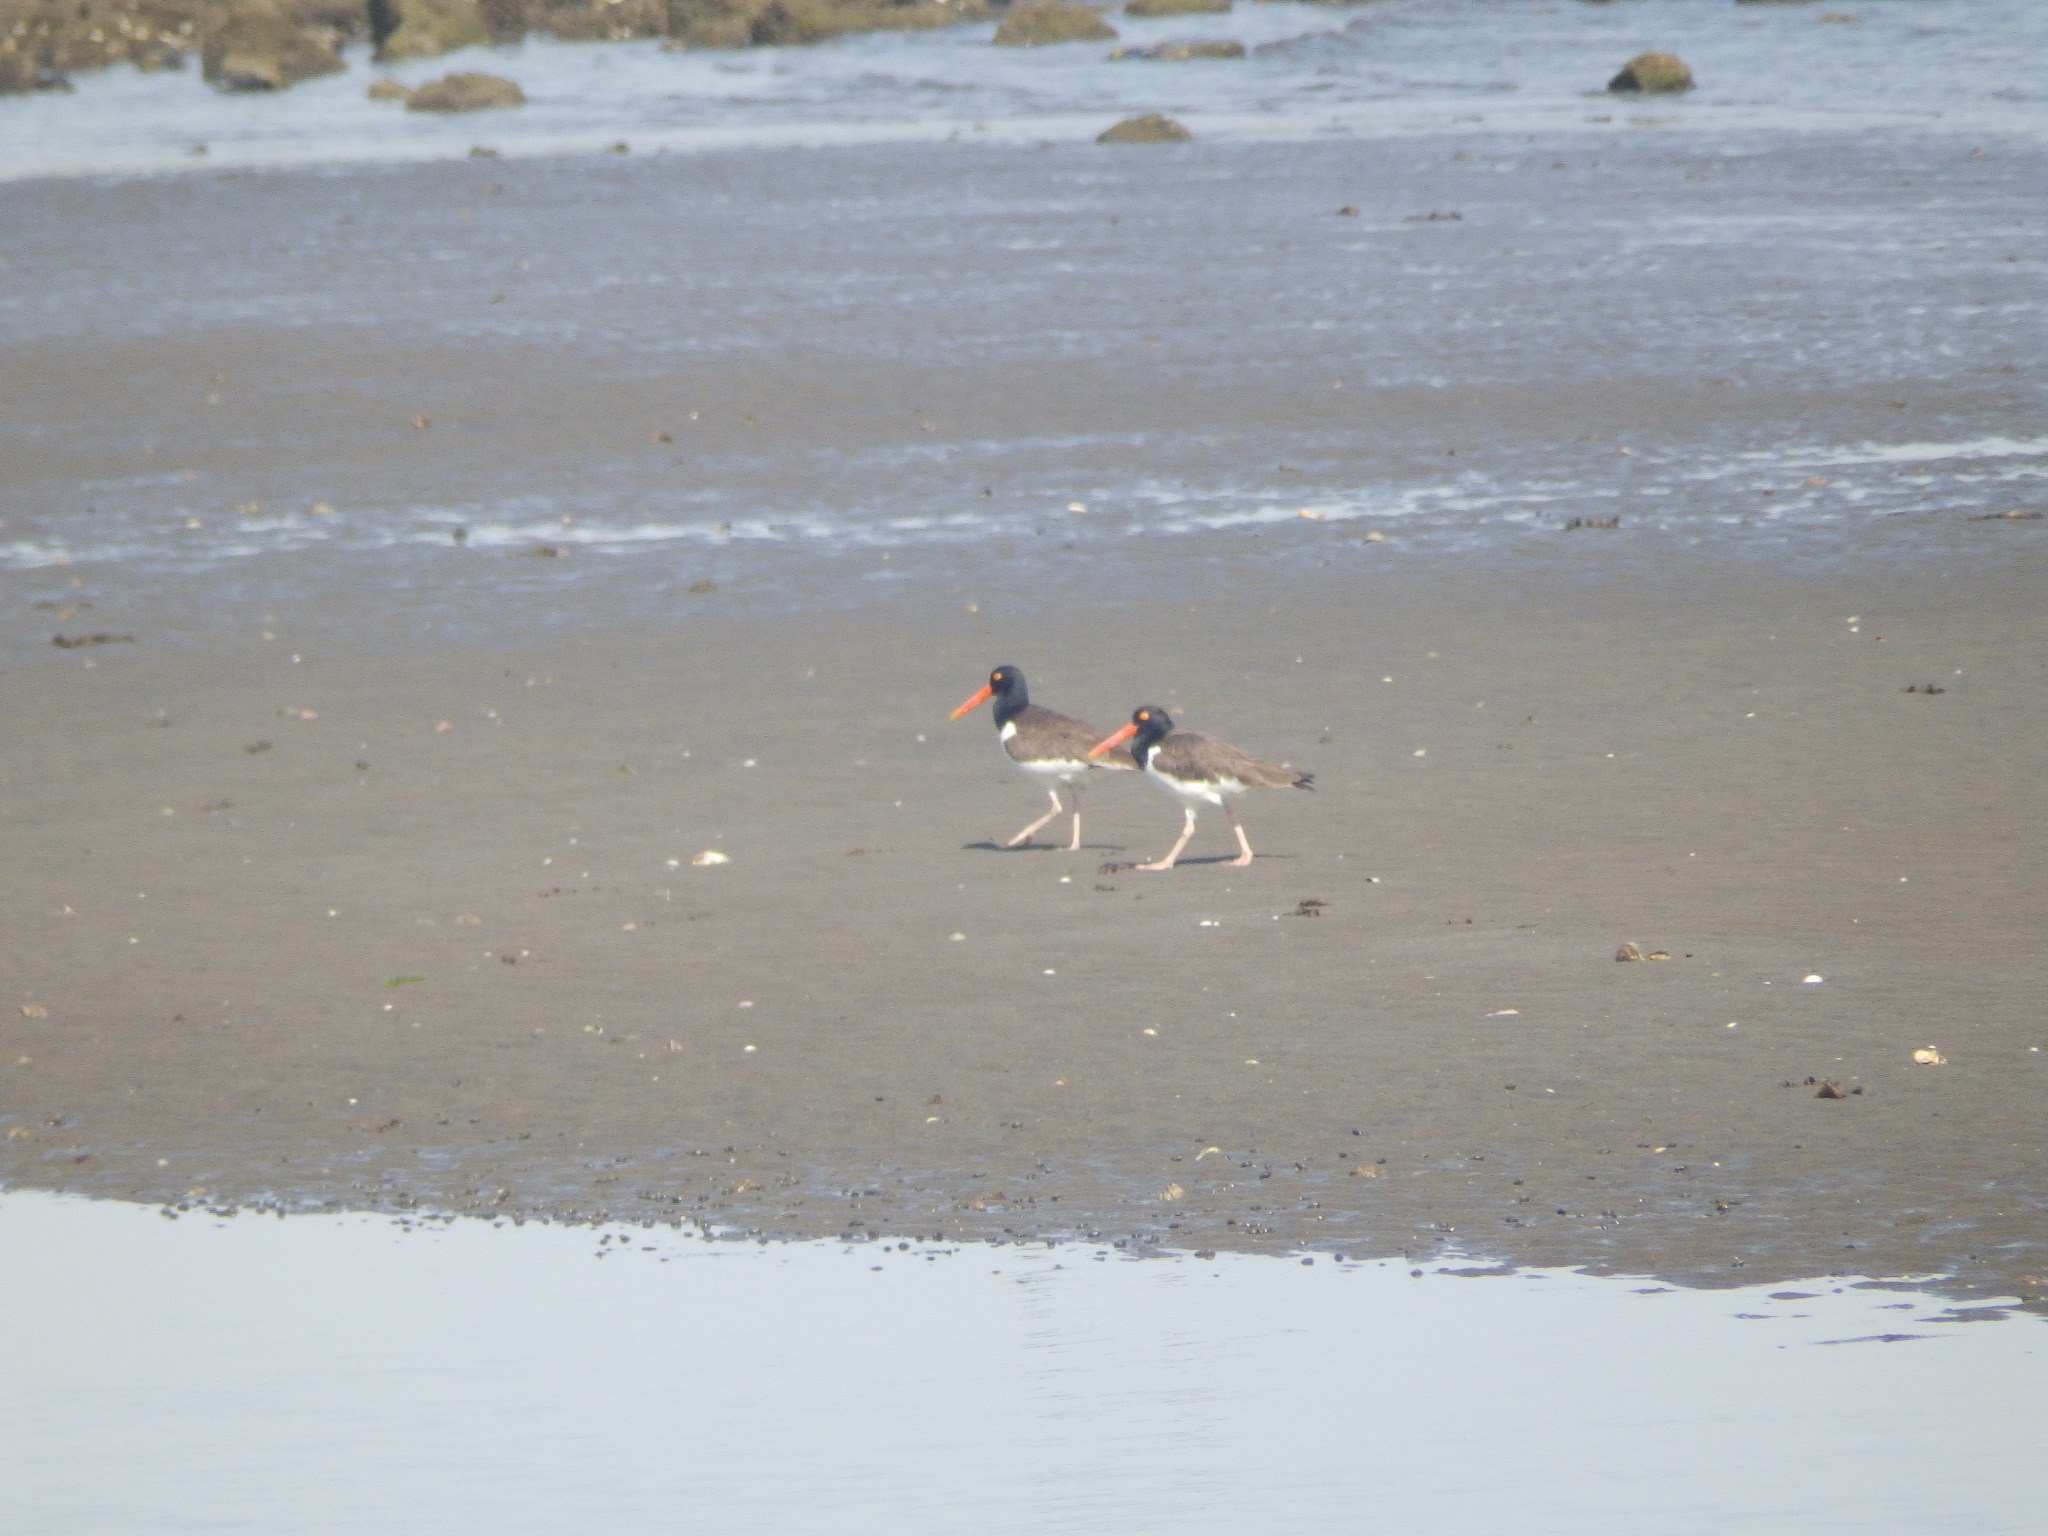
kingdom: Animalia
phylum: Chordata
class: Aves
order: Charadriiformes
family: Haematopodidae
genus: Haematopus
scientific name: Haematopus palliatus
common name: American oystercatcher
